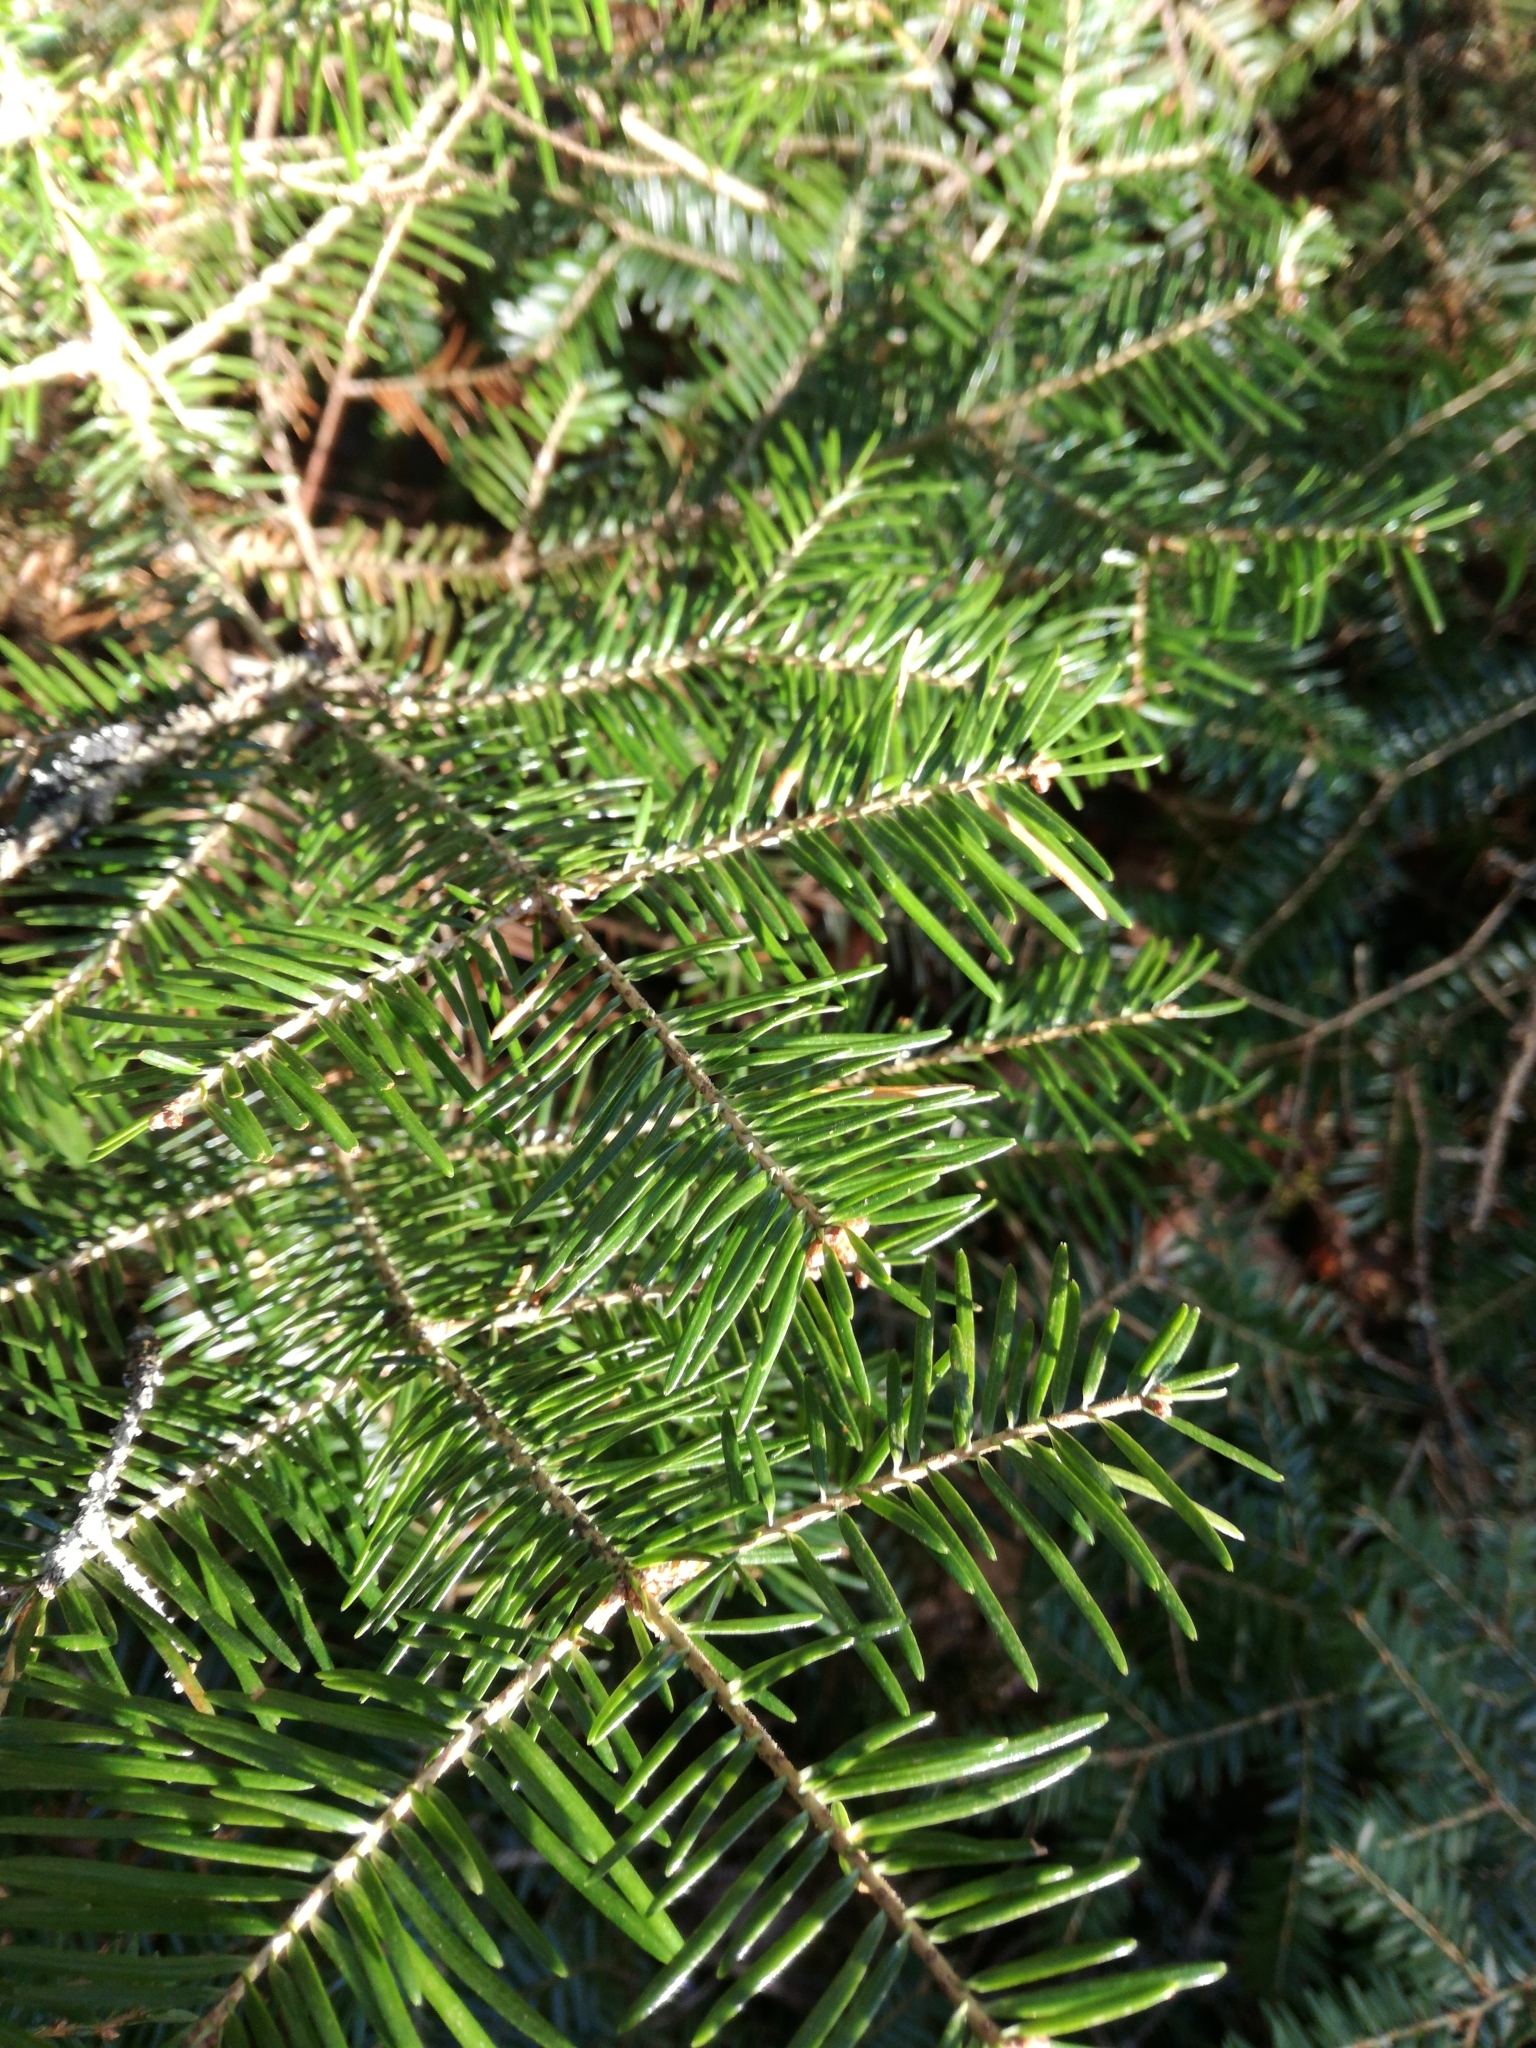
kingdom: Plantae
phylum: Tracheophyta
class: Pinopsida
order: Pinales
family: Pinaceae
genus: Abies
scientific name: Abies balsamea
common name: Balsam fir
